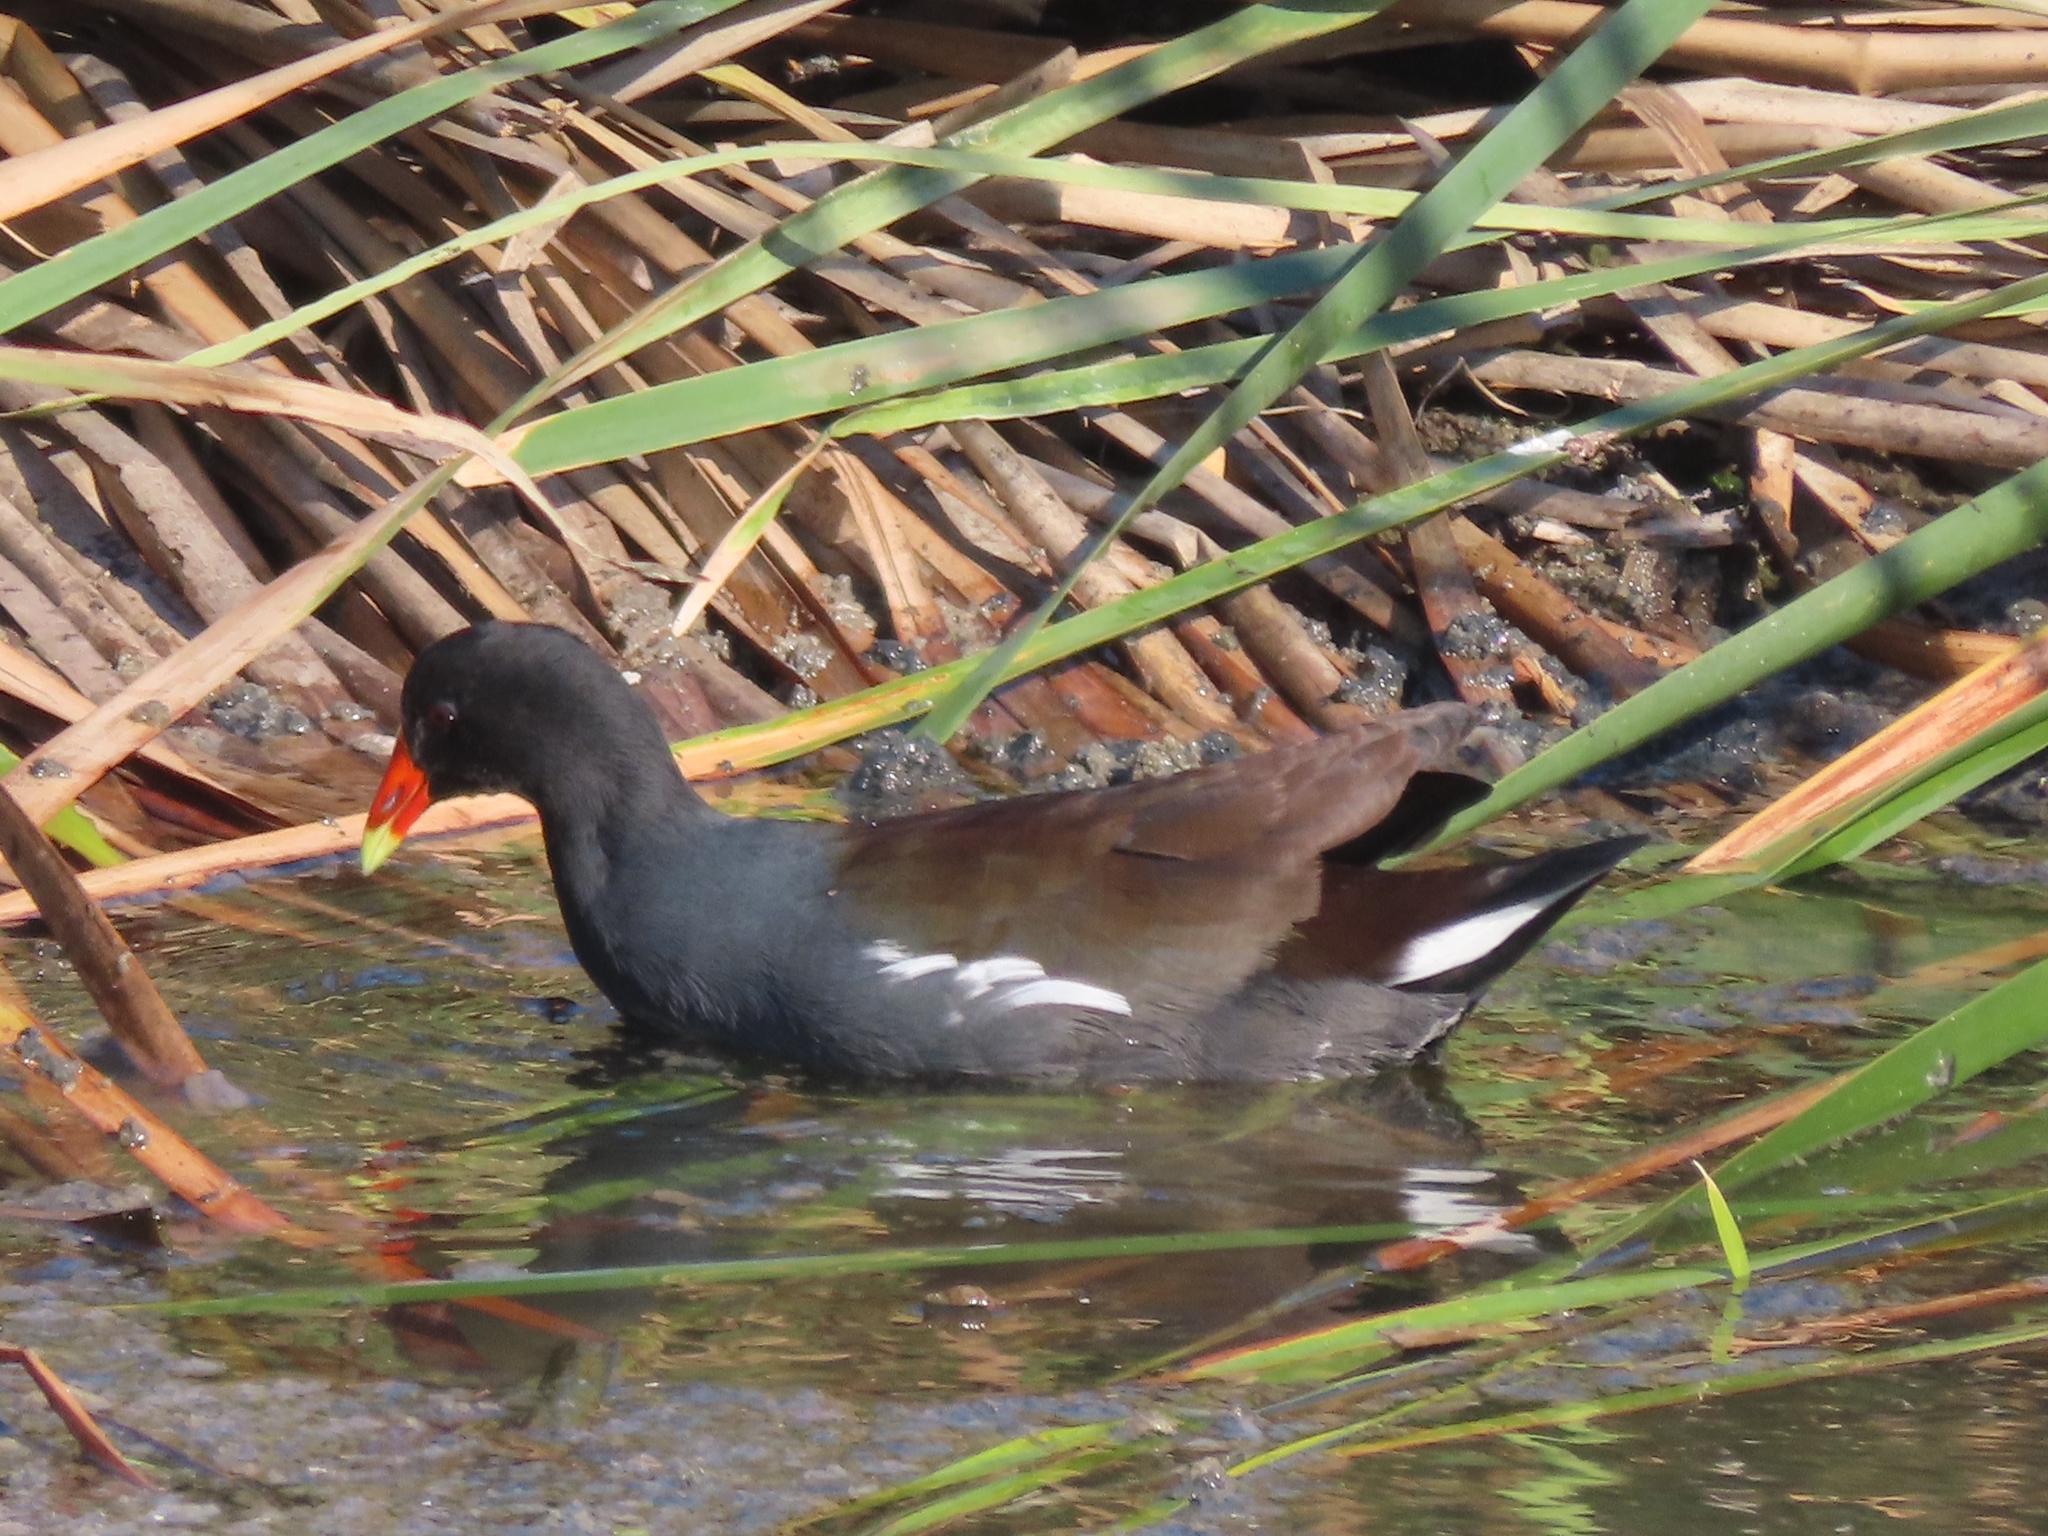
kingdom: Animalia
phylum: Chordata
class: Aves
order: Gruiformes
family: Rallidae
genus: Gallinula
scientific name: Gallinula chloropus
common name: Common moorhen
